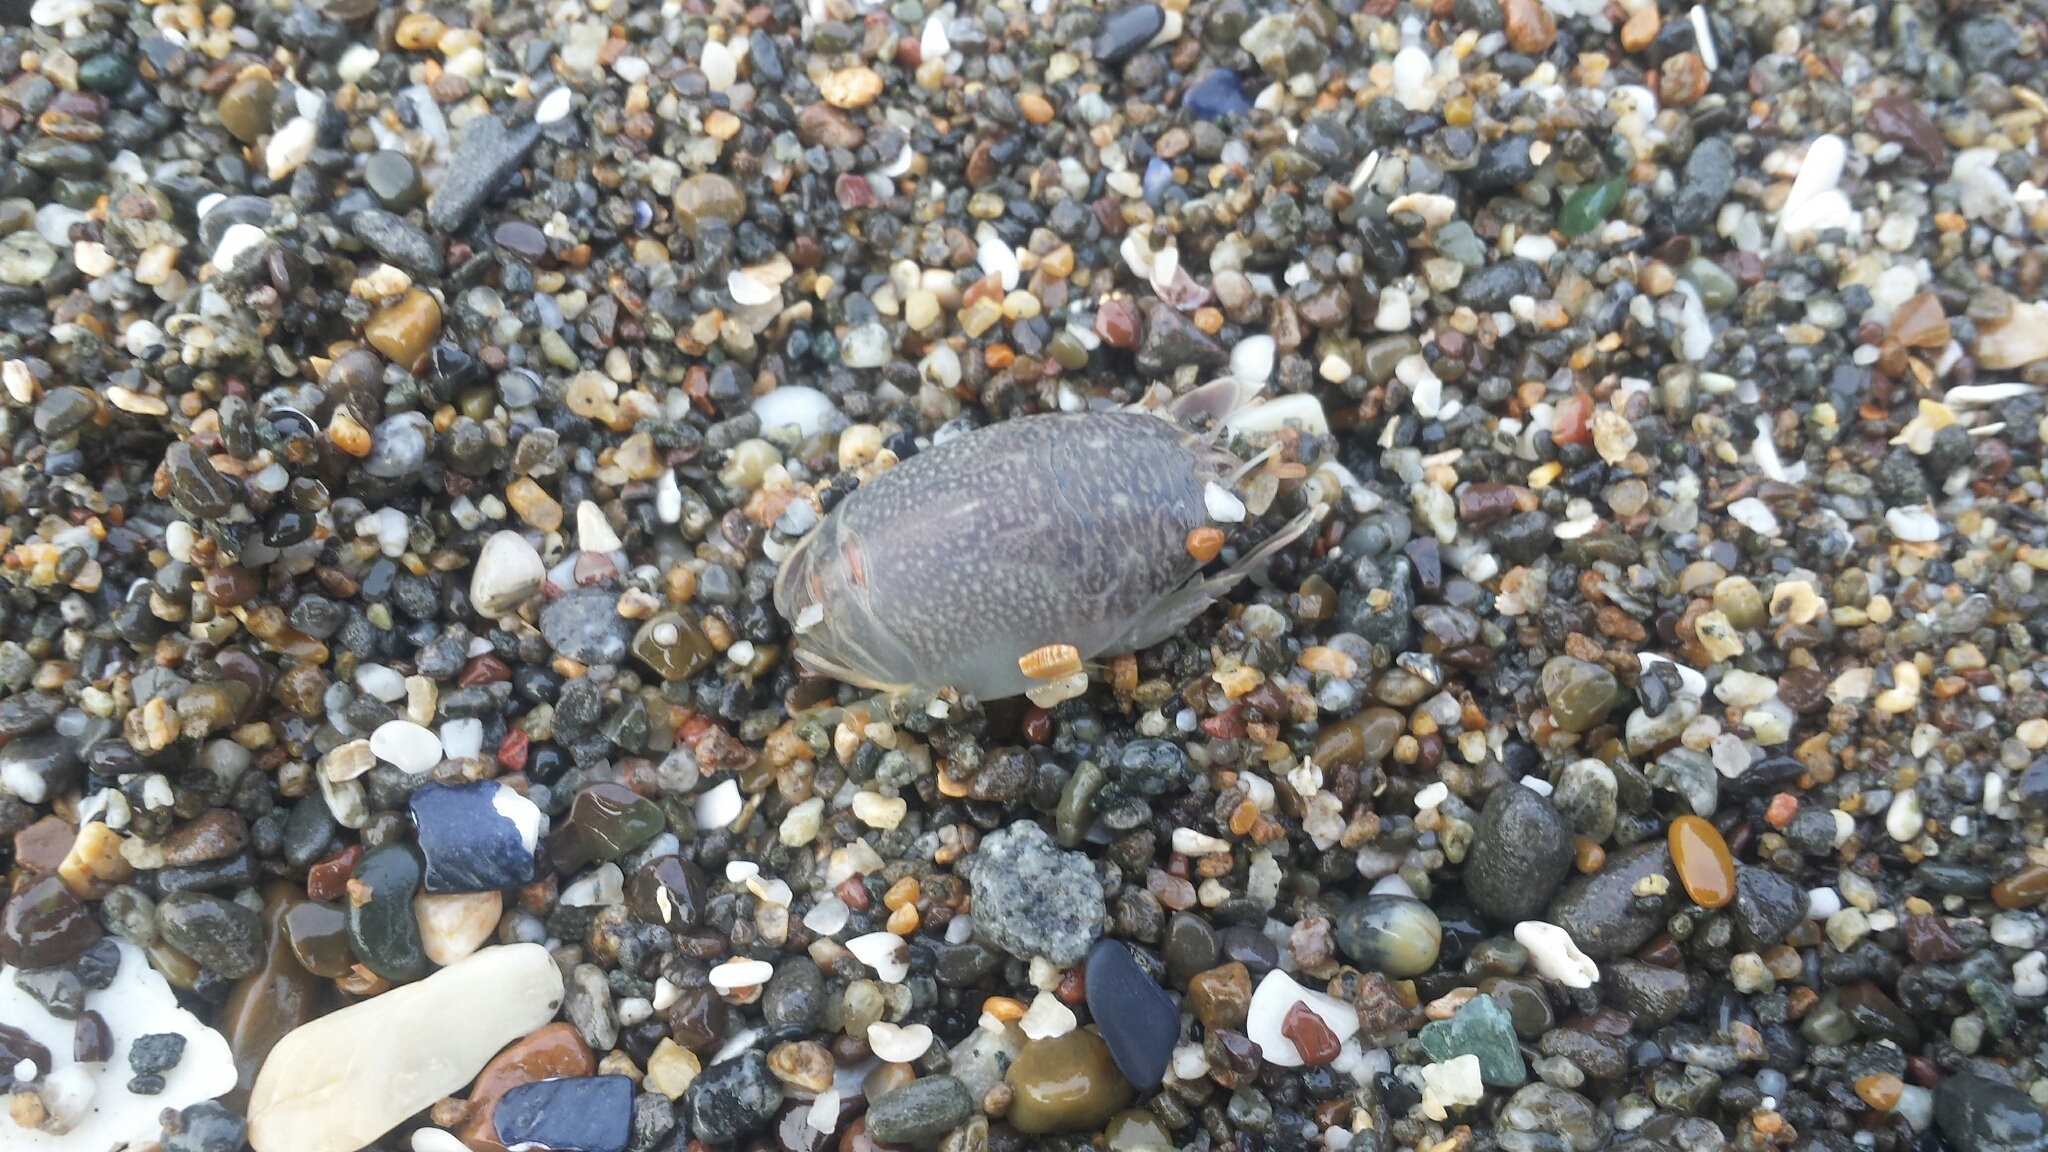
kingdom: Animalia
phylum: Arthropoda
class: Malacostraca
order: Decapoda
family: Hippidae
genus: Emerita
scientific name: Emerita analoga
